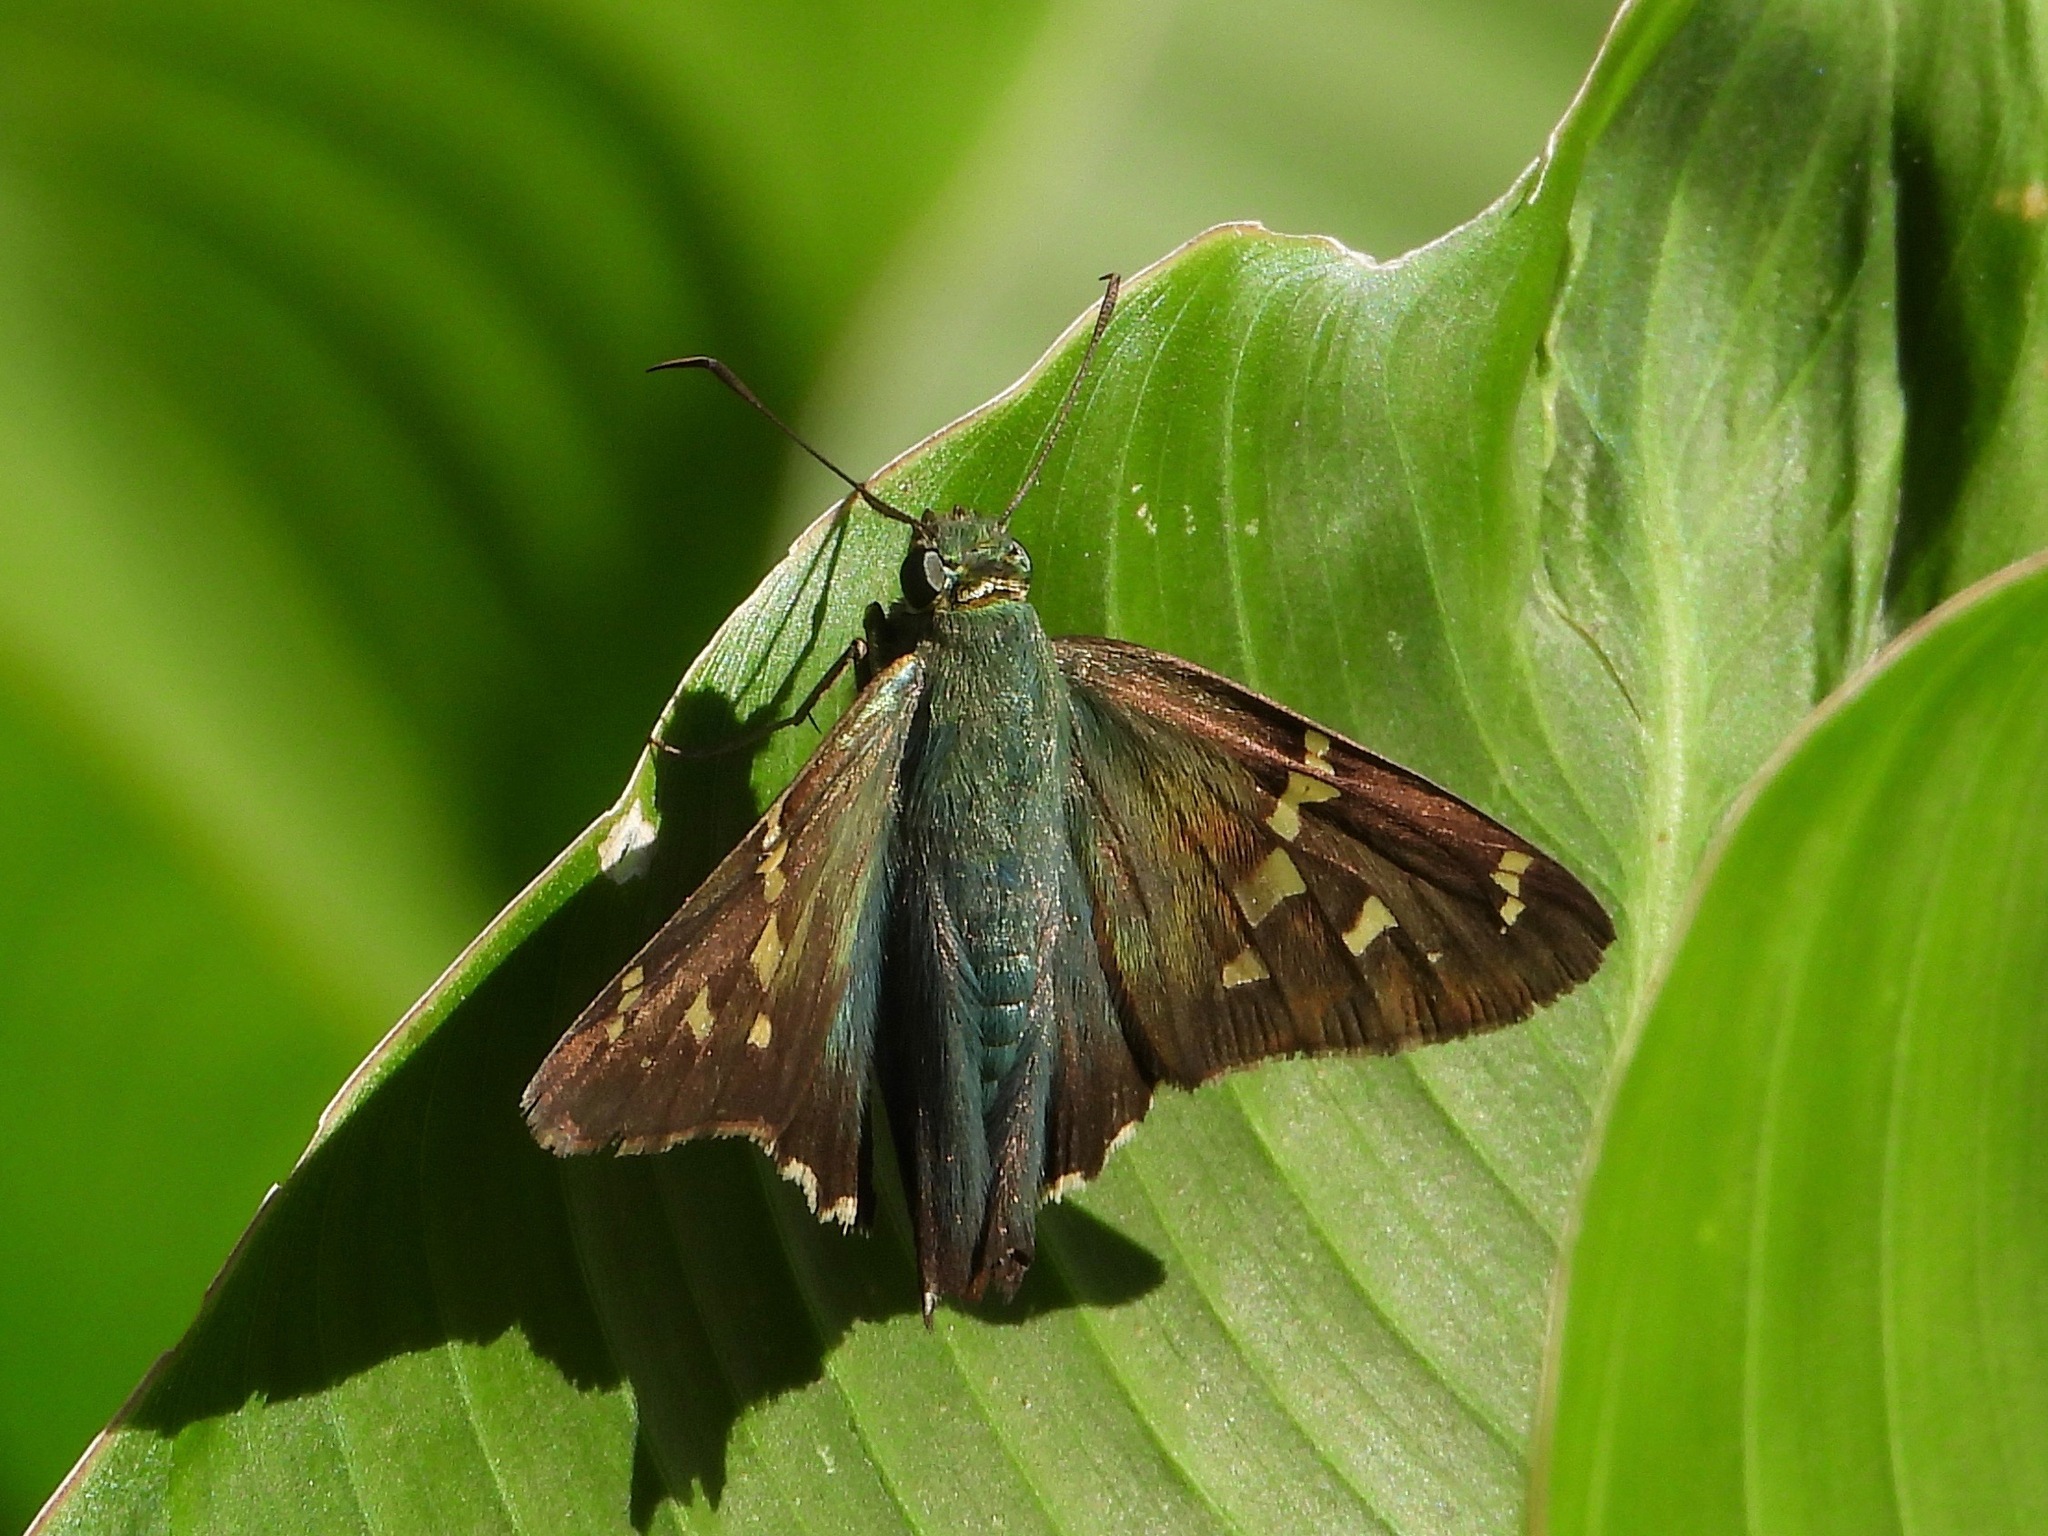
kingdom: Animalia
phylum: Arthropoda
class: Insecta
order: Lepidoptera
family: Hesperiidae
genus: Urbanus
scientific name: Urbanus proteus
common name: Long-tailed skipper
